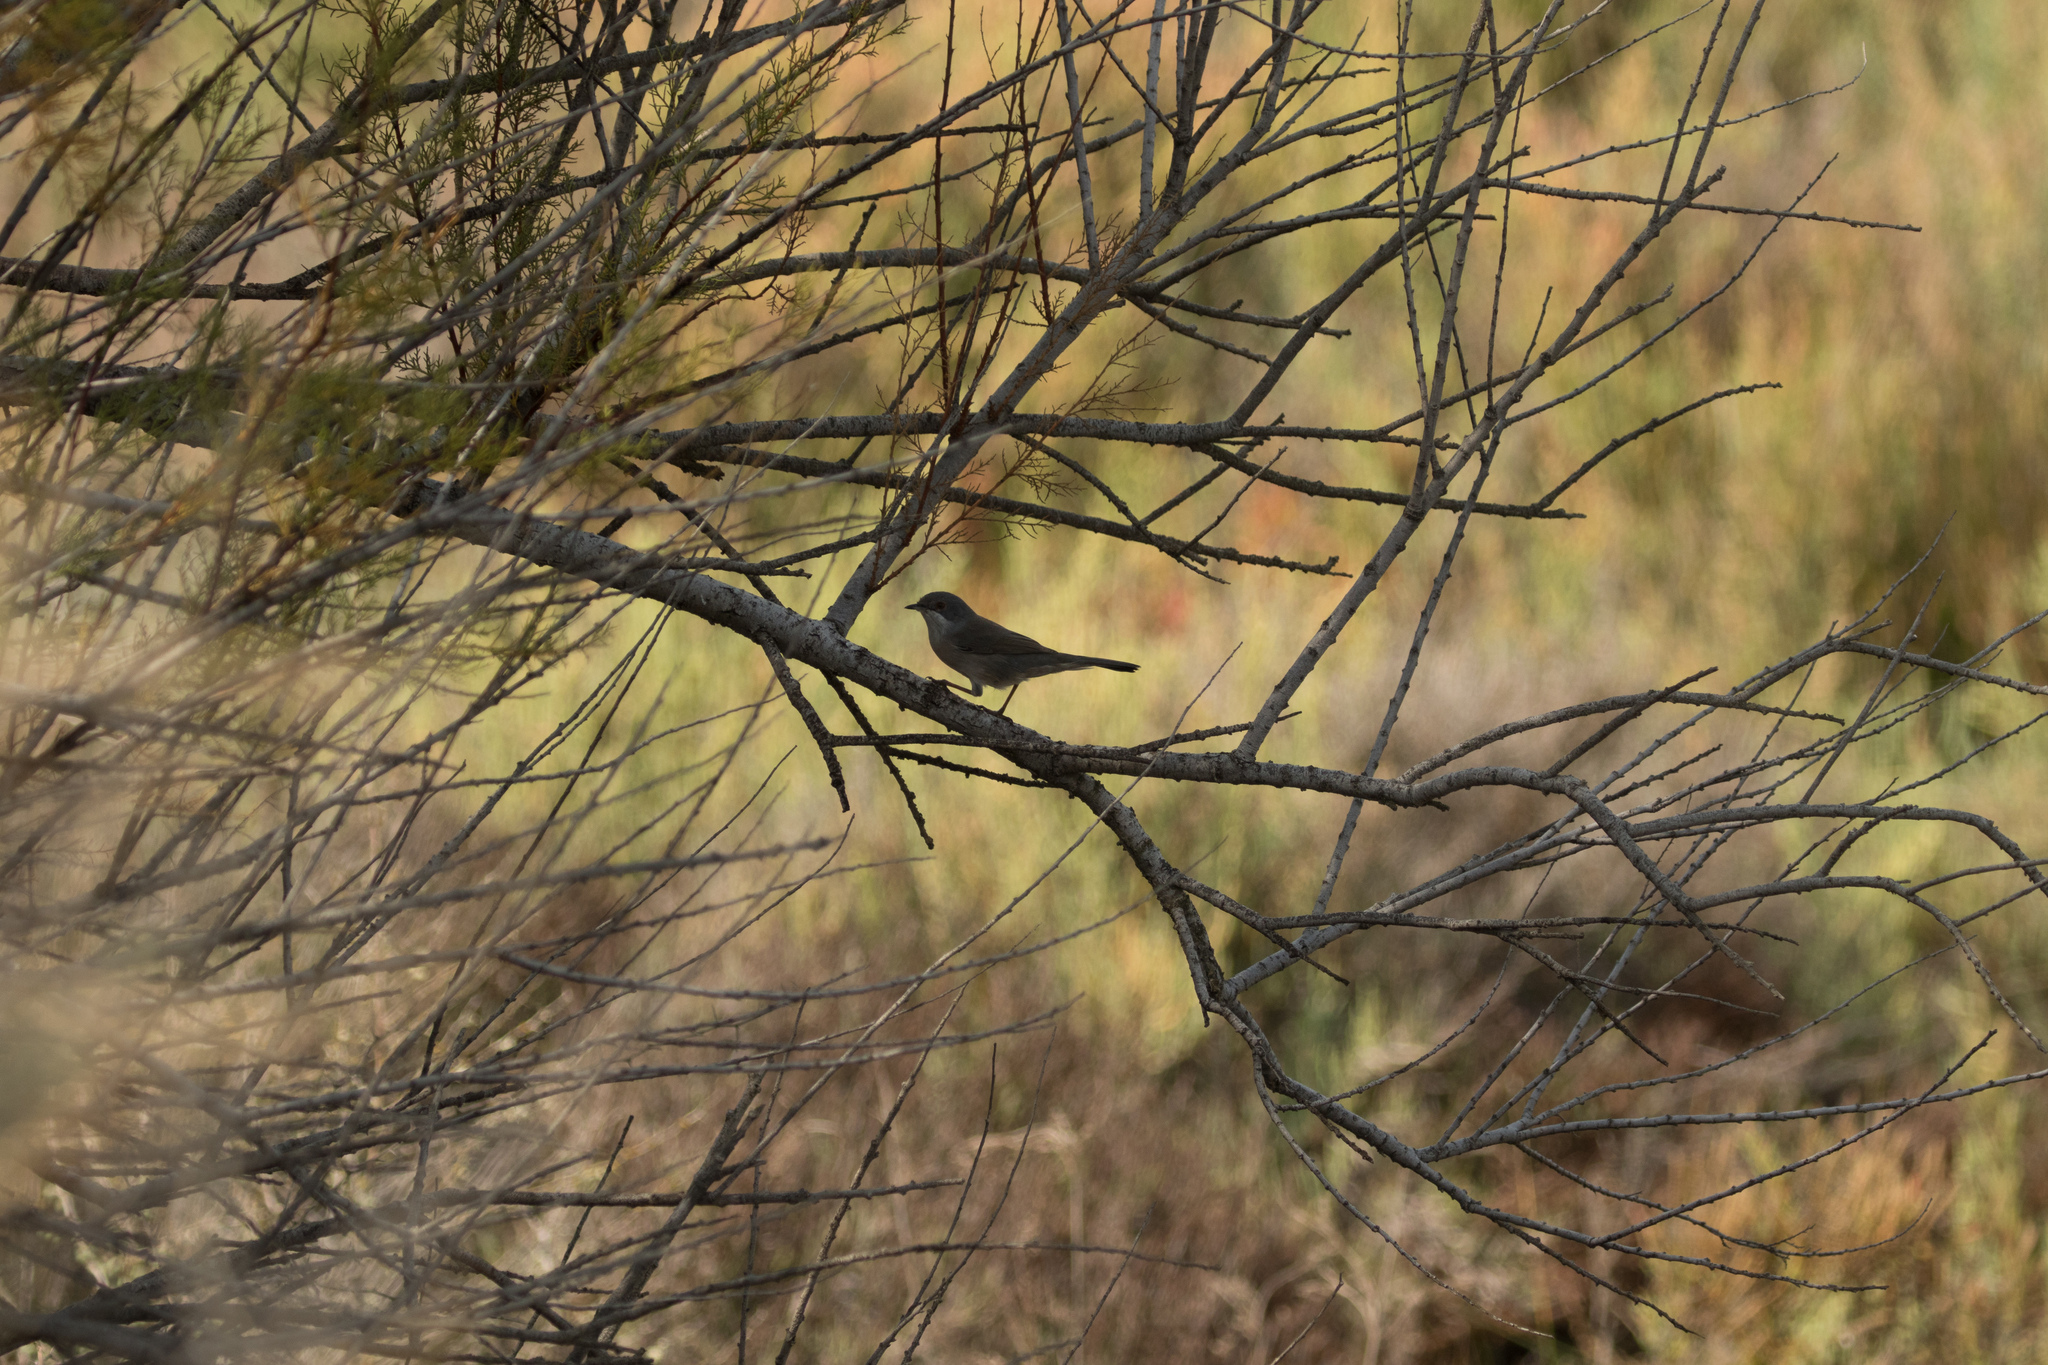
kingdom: Animalia
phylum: Chordata
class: Aves
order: Passeriformes
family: Sylviidae
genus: Curruca
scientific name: Curruca melanocephala
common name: Sardinian warbler
